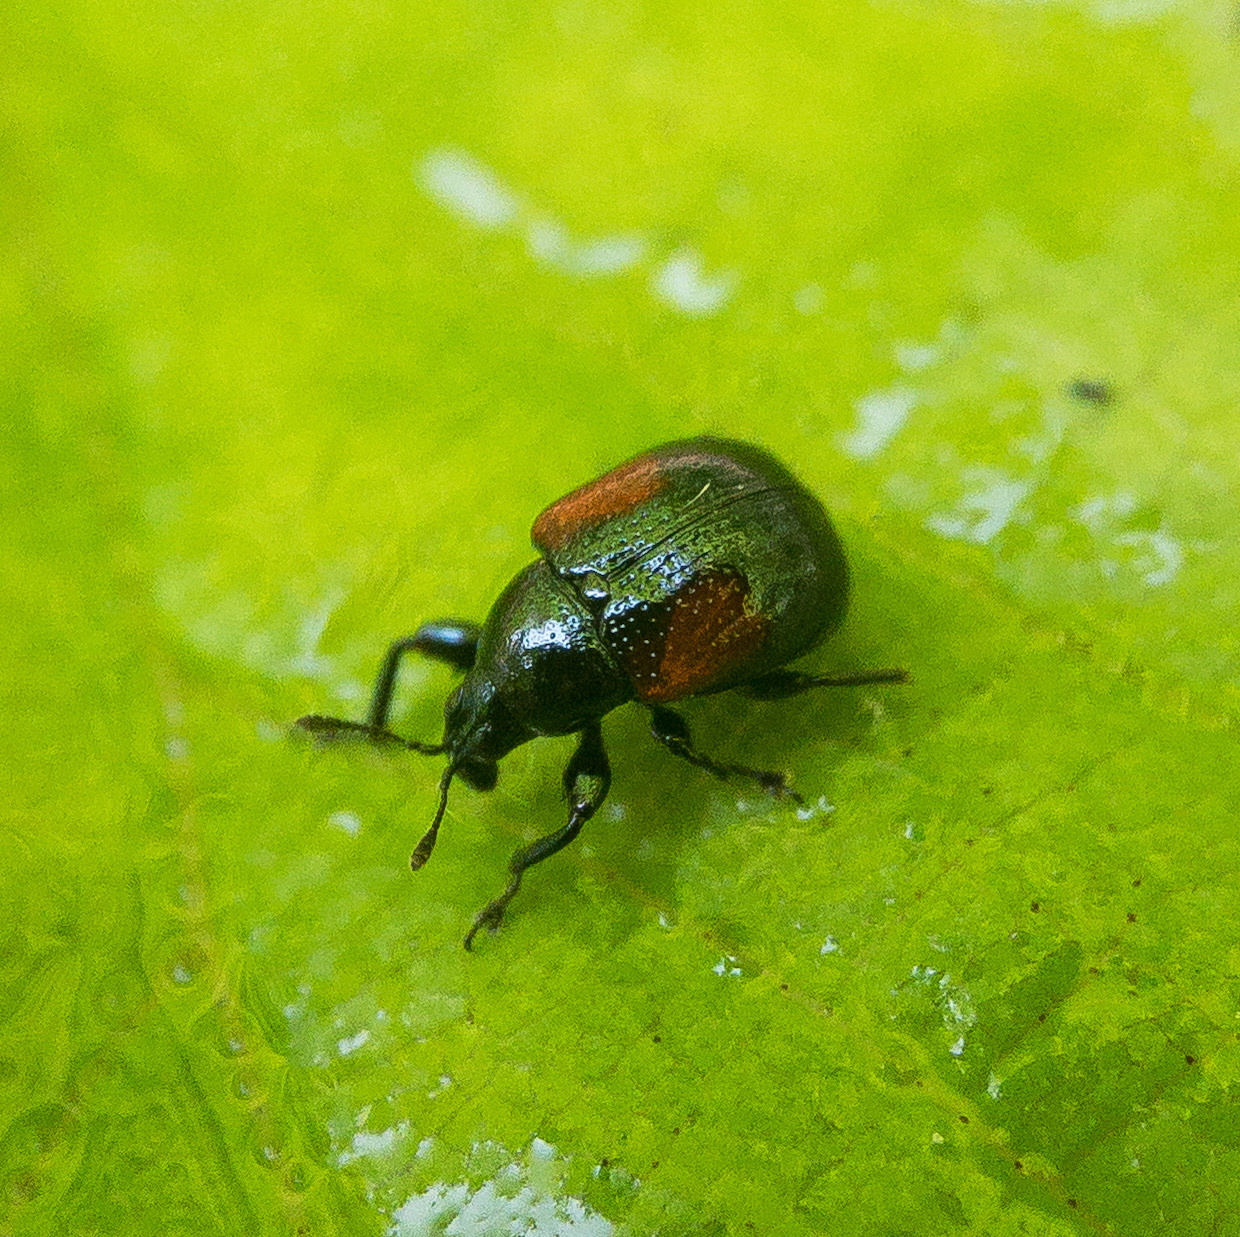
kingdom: Animalia
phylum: Arthropoda
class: Insecta
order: Coleoptera
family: Attelabidae
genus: Attelabus
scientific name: Attelabus bipustulatus
